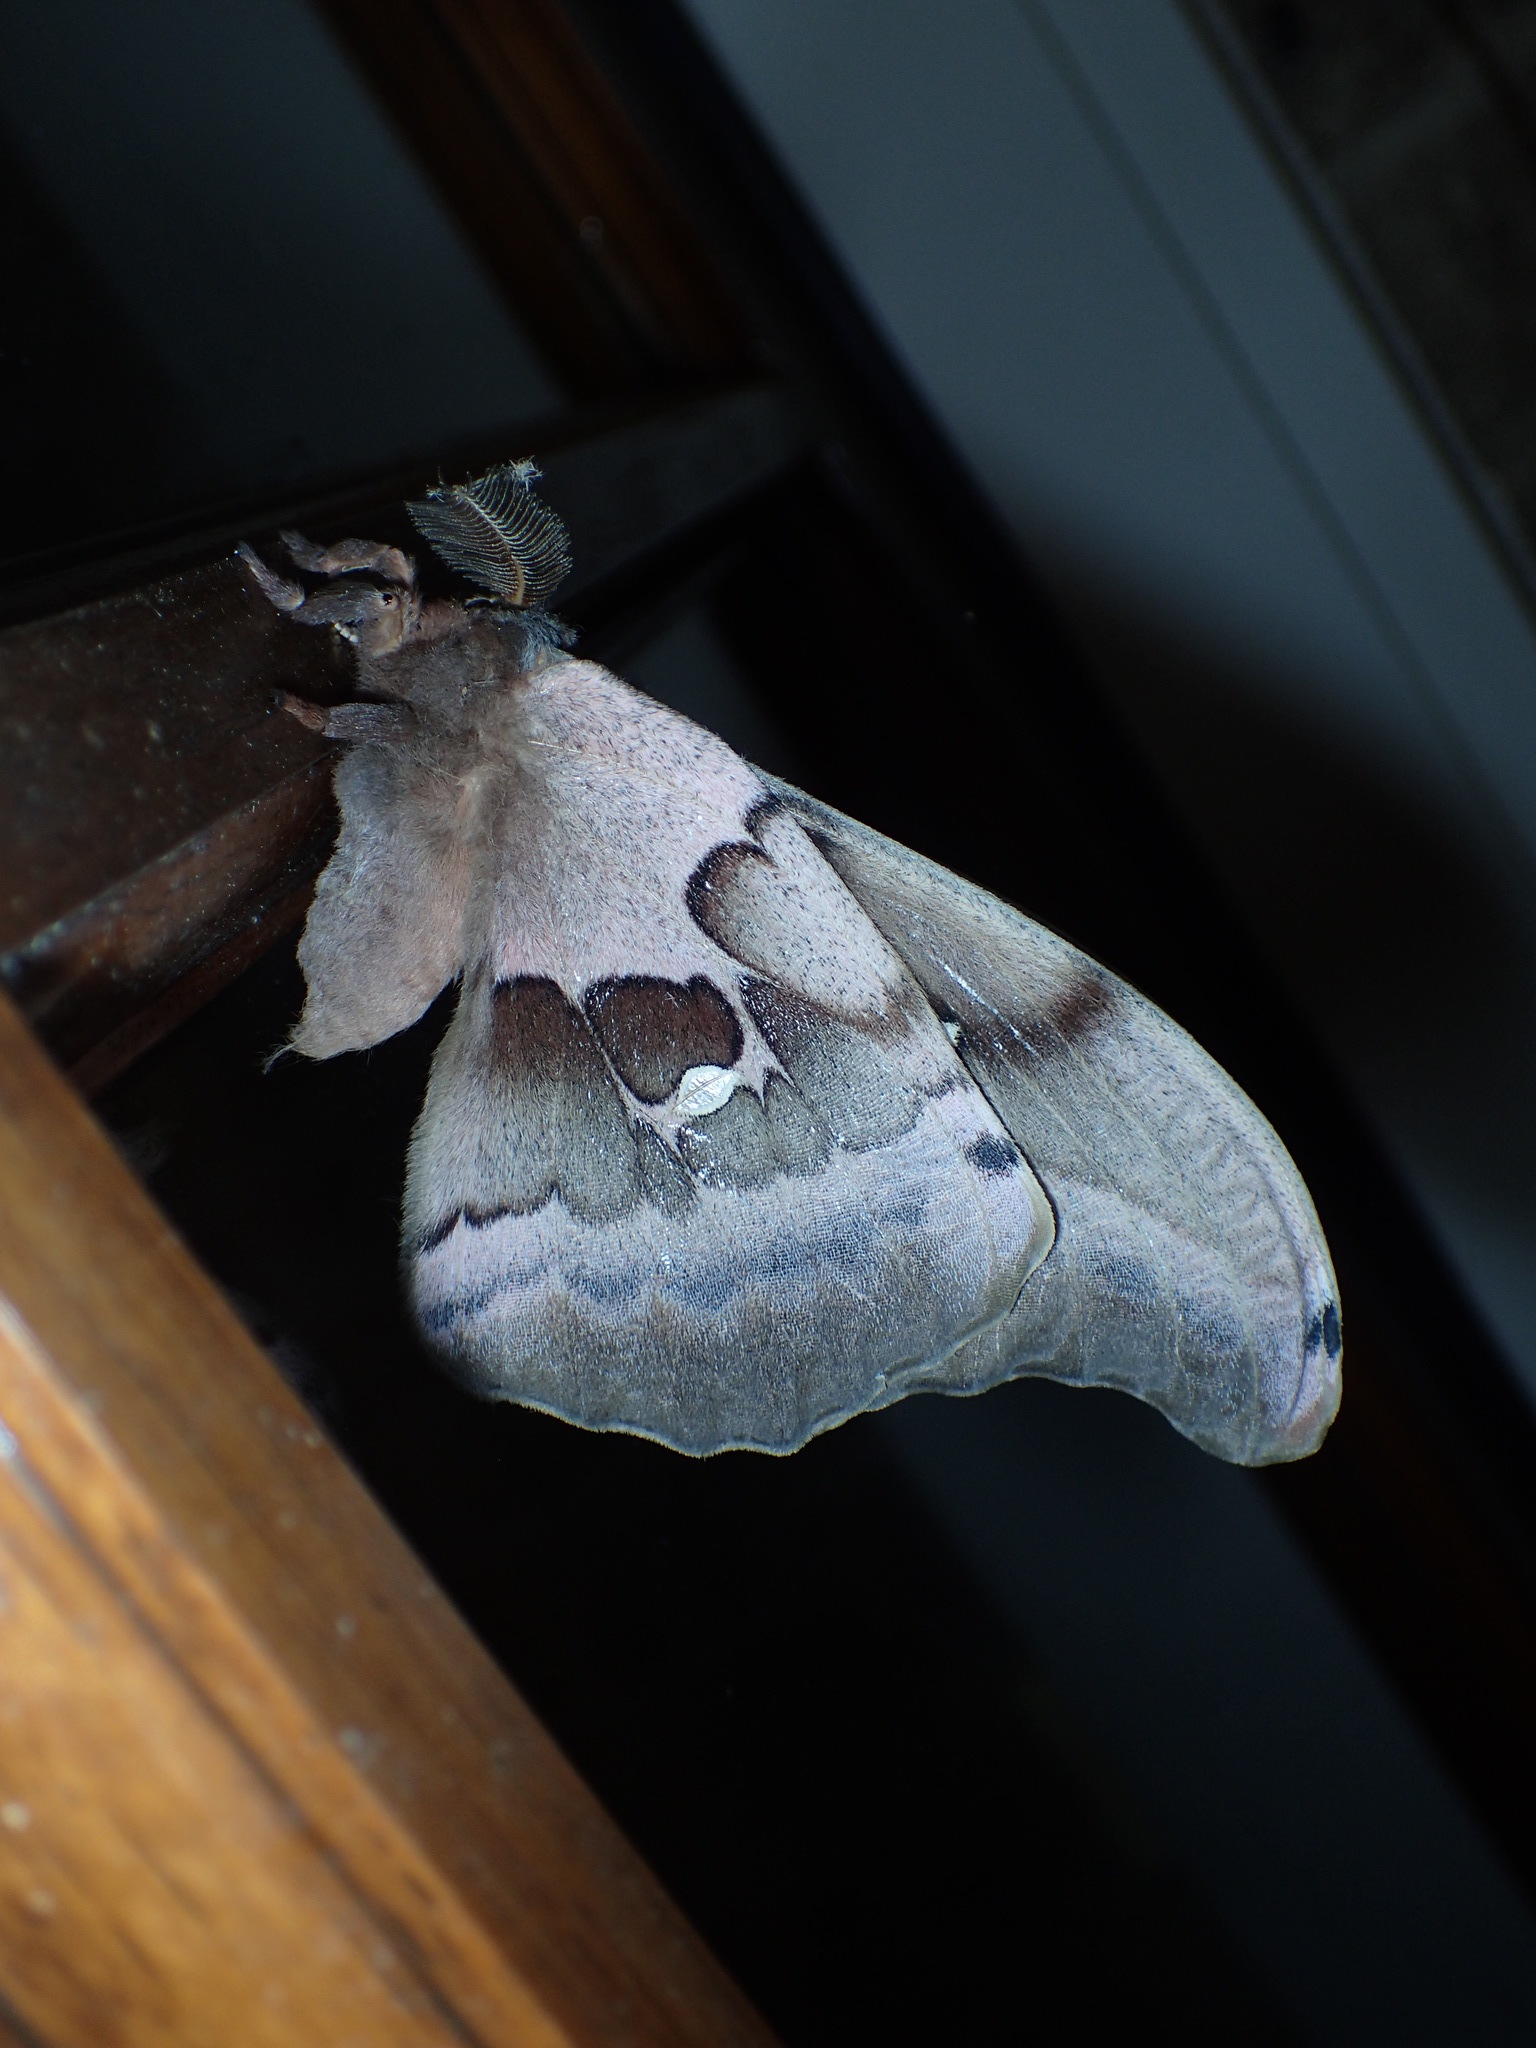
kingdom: Animalia
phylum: Arthropoda
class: Insecta
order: Lepidoptera
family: Saturniidae
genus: Antheraea
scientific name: Antheraea polyphemus
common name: Polyphemus moth
